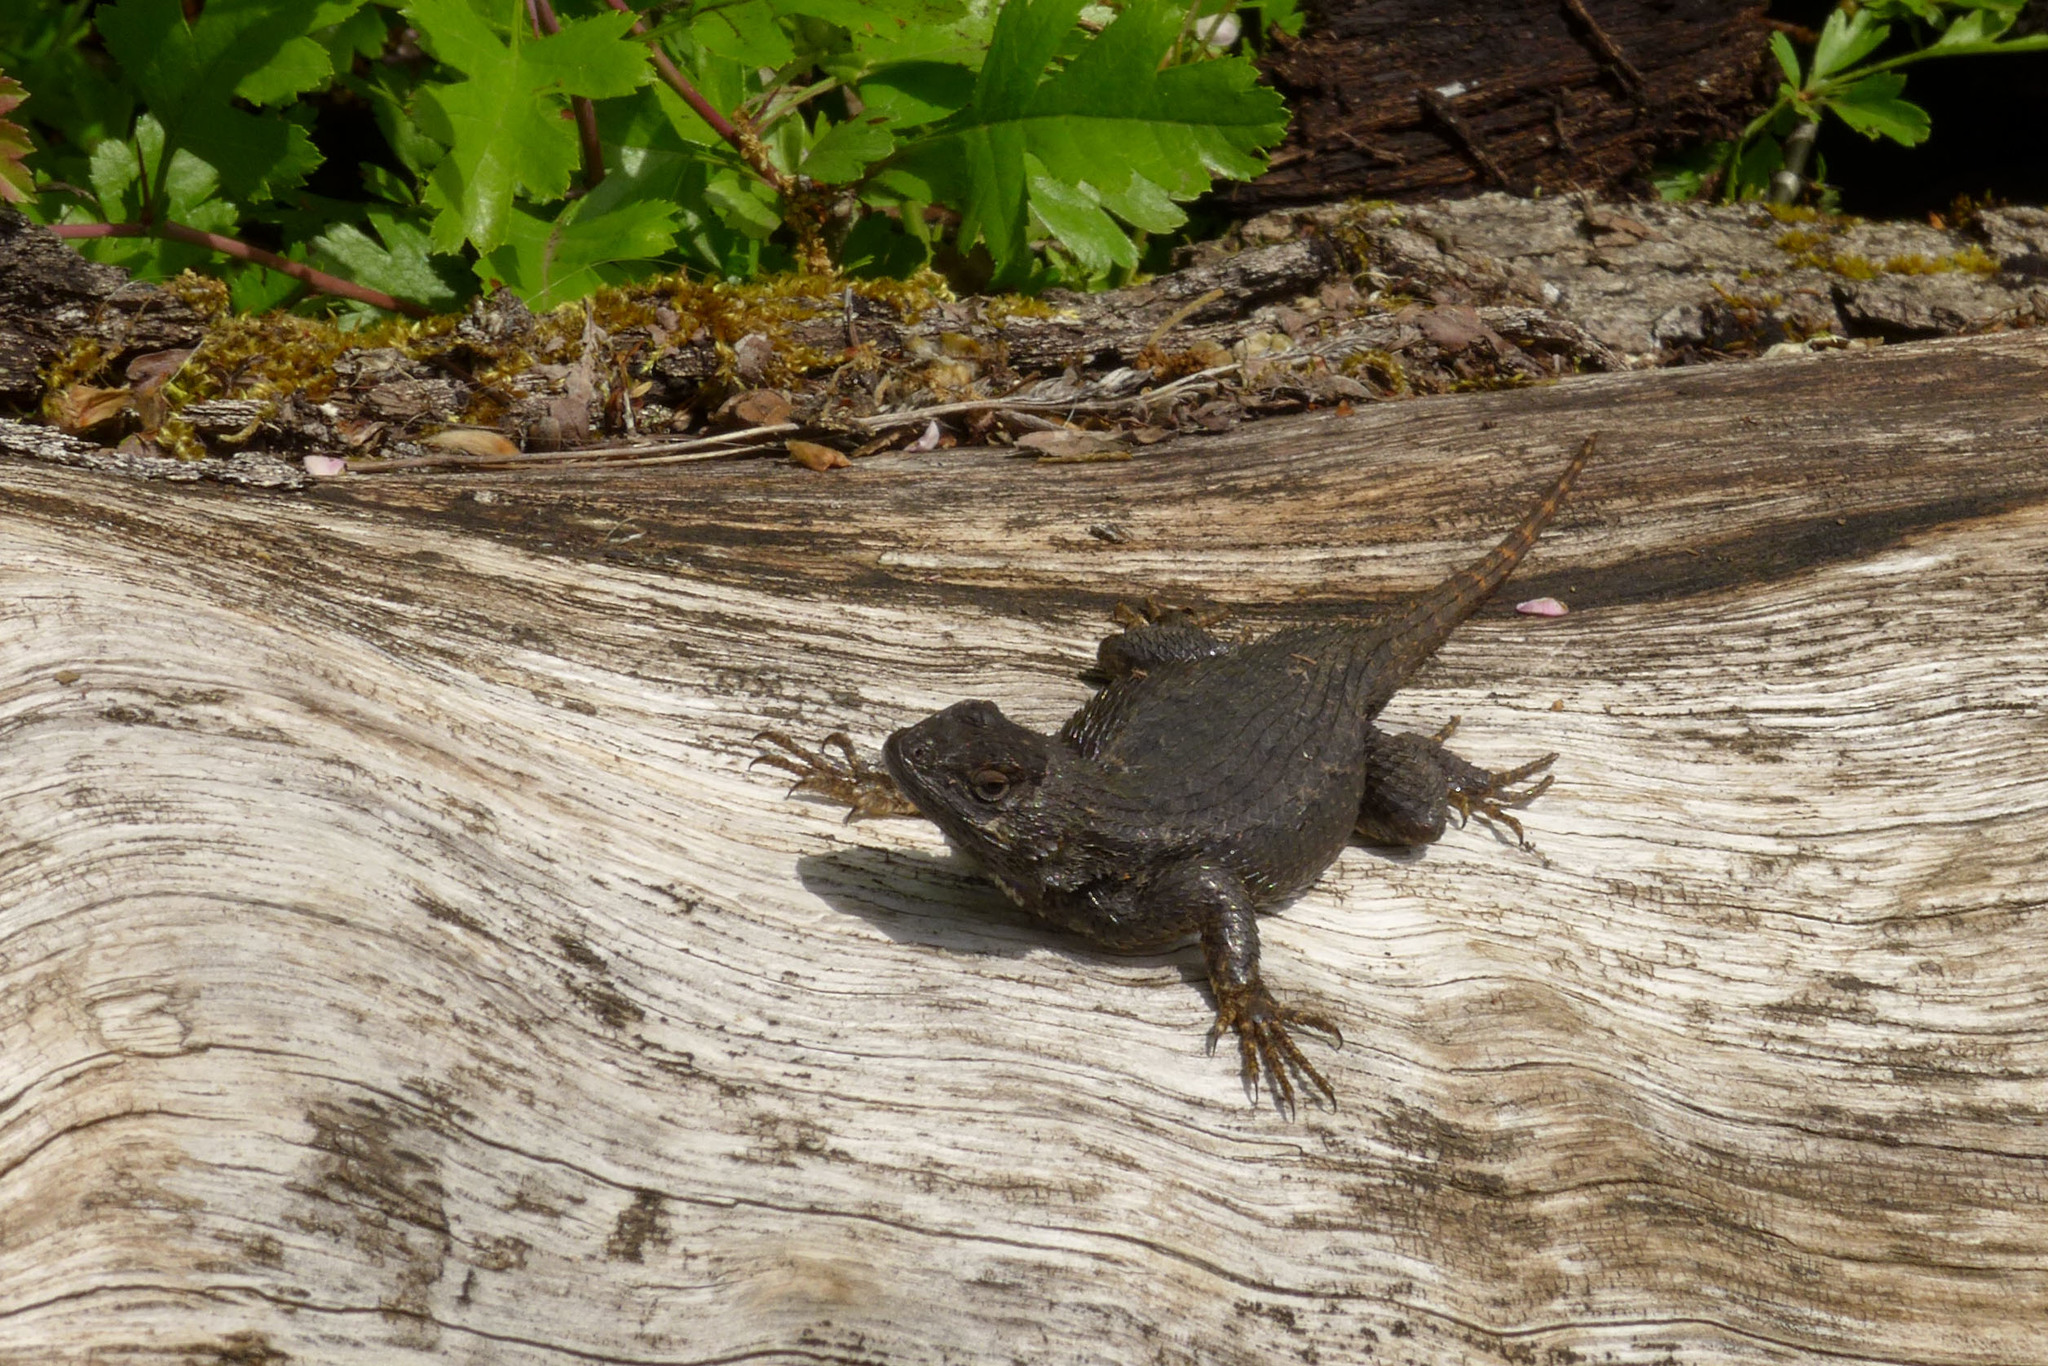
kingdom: Animalia
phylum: Chordata
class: Squamata
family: Phrynosomatidae
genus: Sceloporus
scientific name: Sceloporus occidentalis
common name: Western fence lizard
